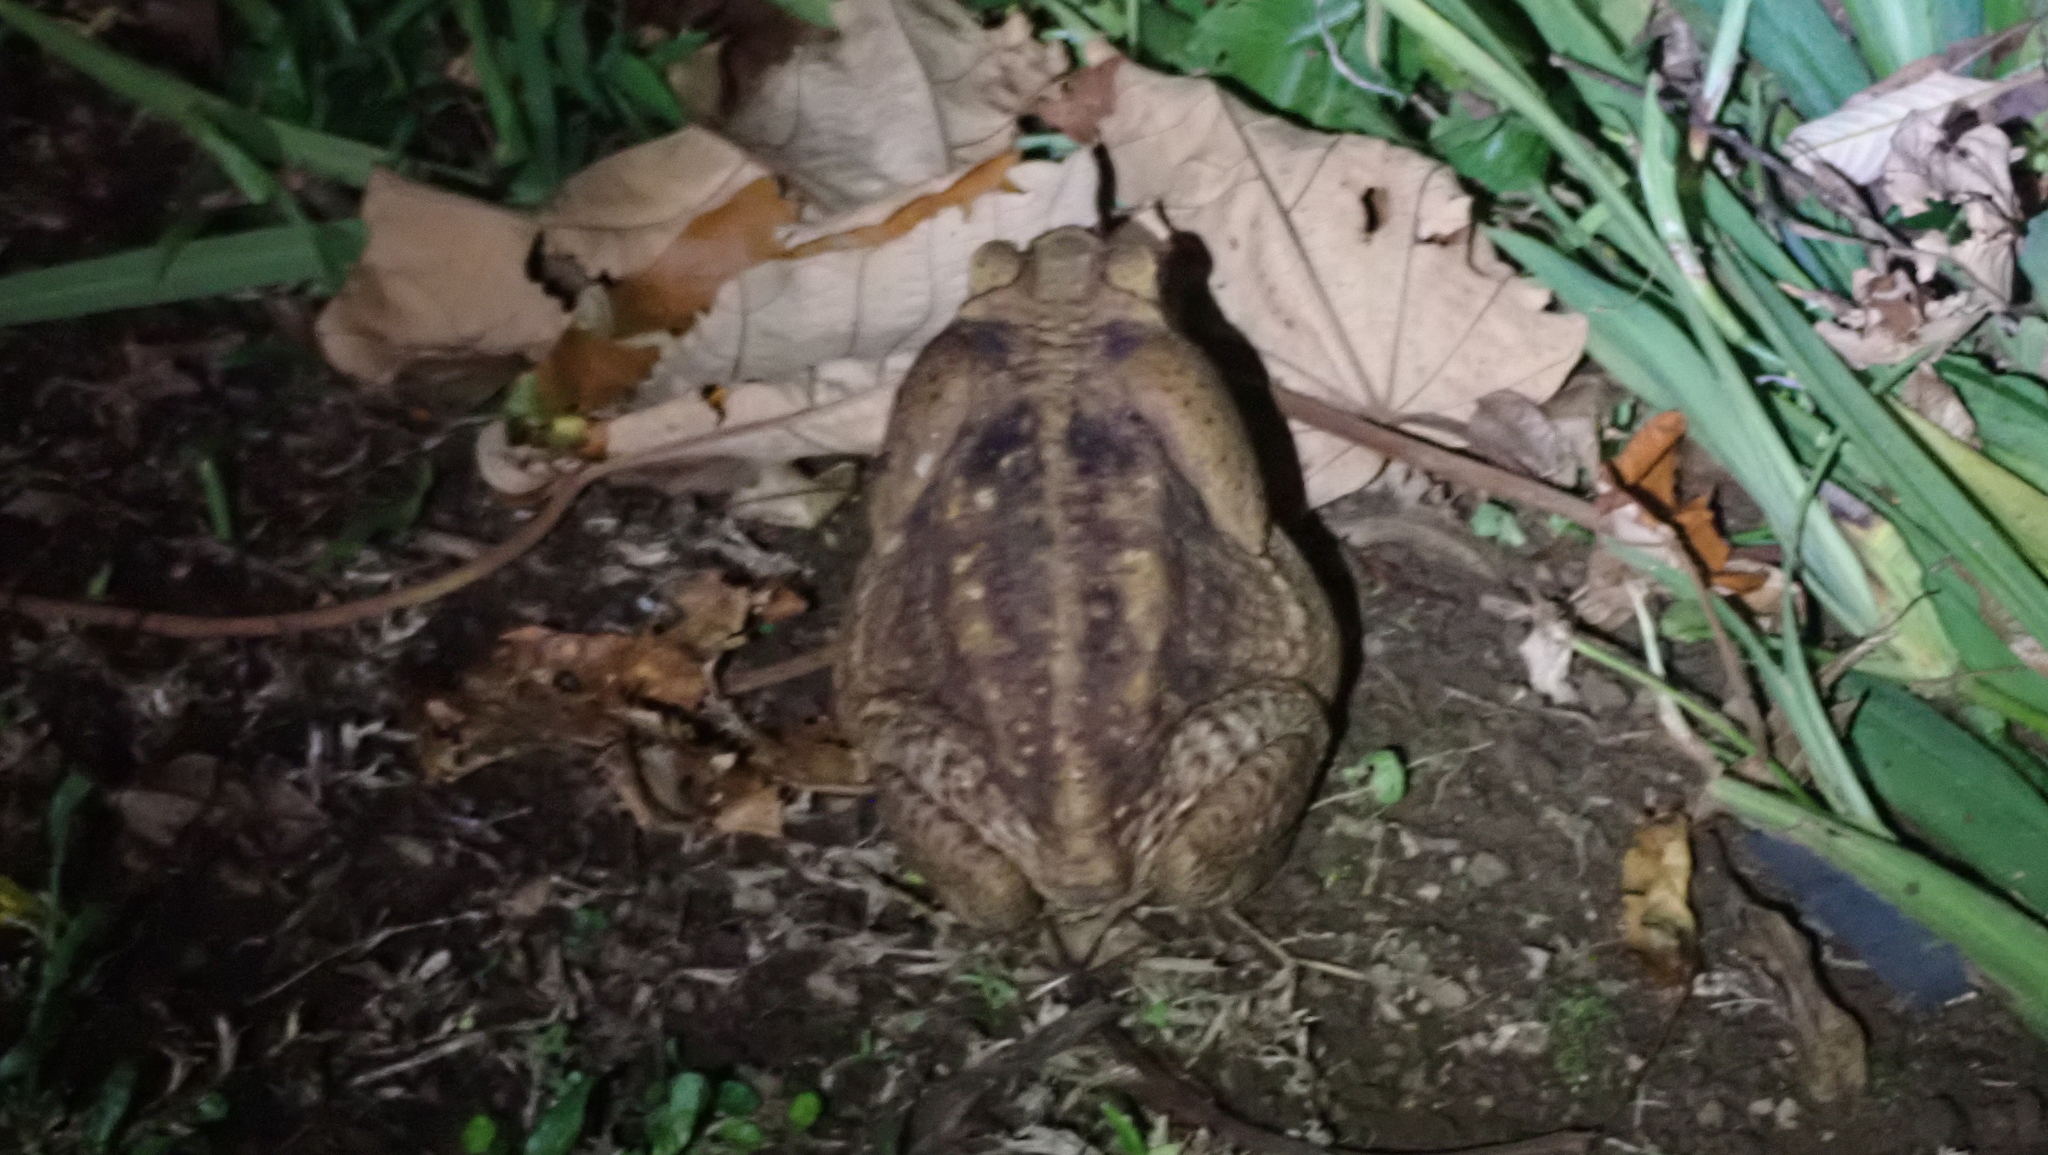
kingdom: Animalia
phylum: Chordata
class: Amphibia
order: Anura
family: Bufonidae
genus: Rhinella
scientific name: Rhinella horribilis
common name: Mesoamerican cane toad
